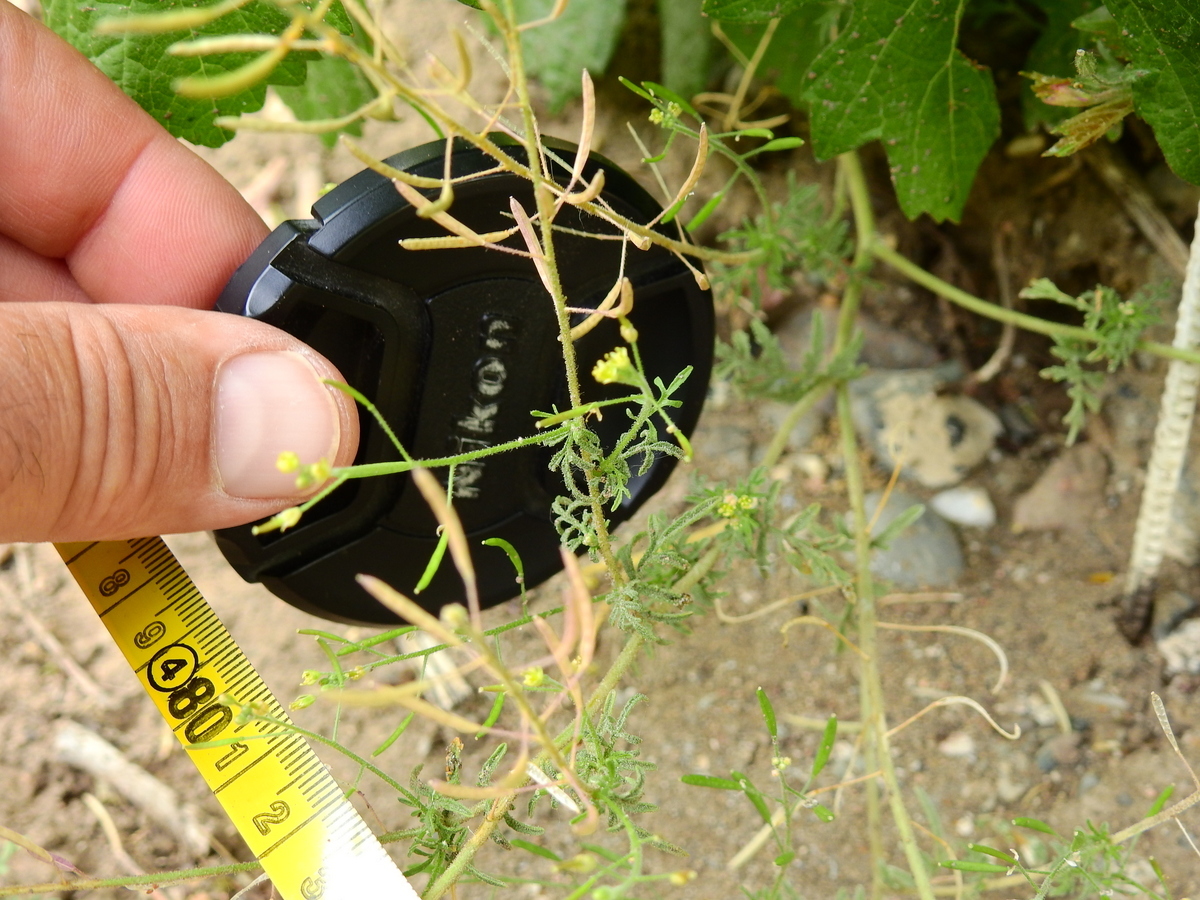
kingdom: Plantae
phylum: Tracheophyta
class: Magnoliopsida
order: Brassicales
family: Brassicaceae
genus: Descurainia
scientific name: Descurainia nuttallii
